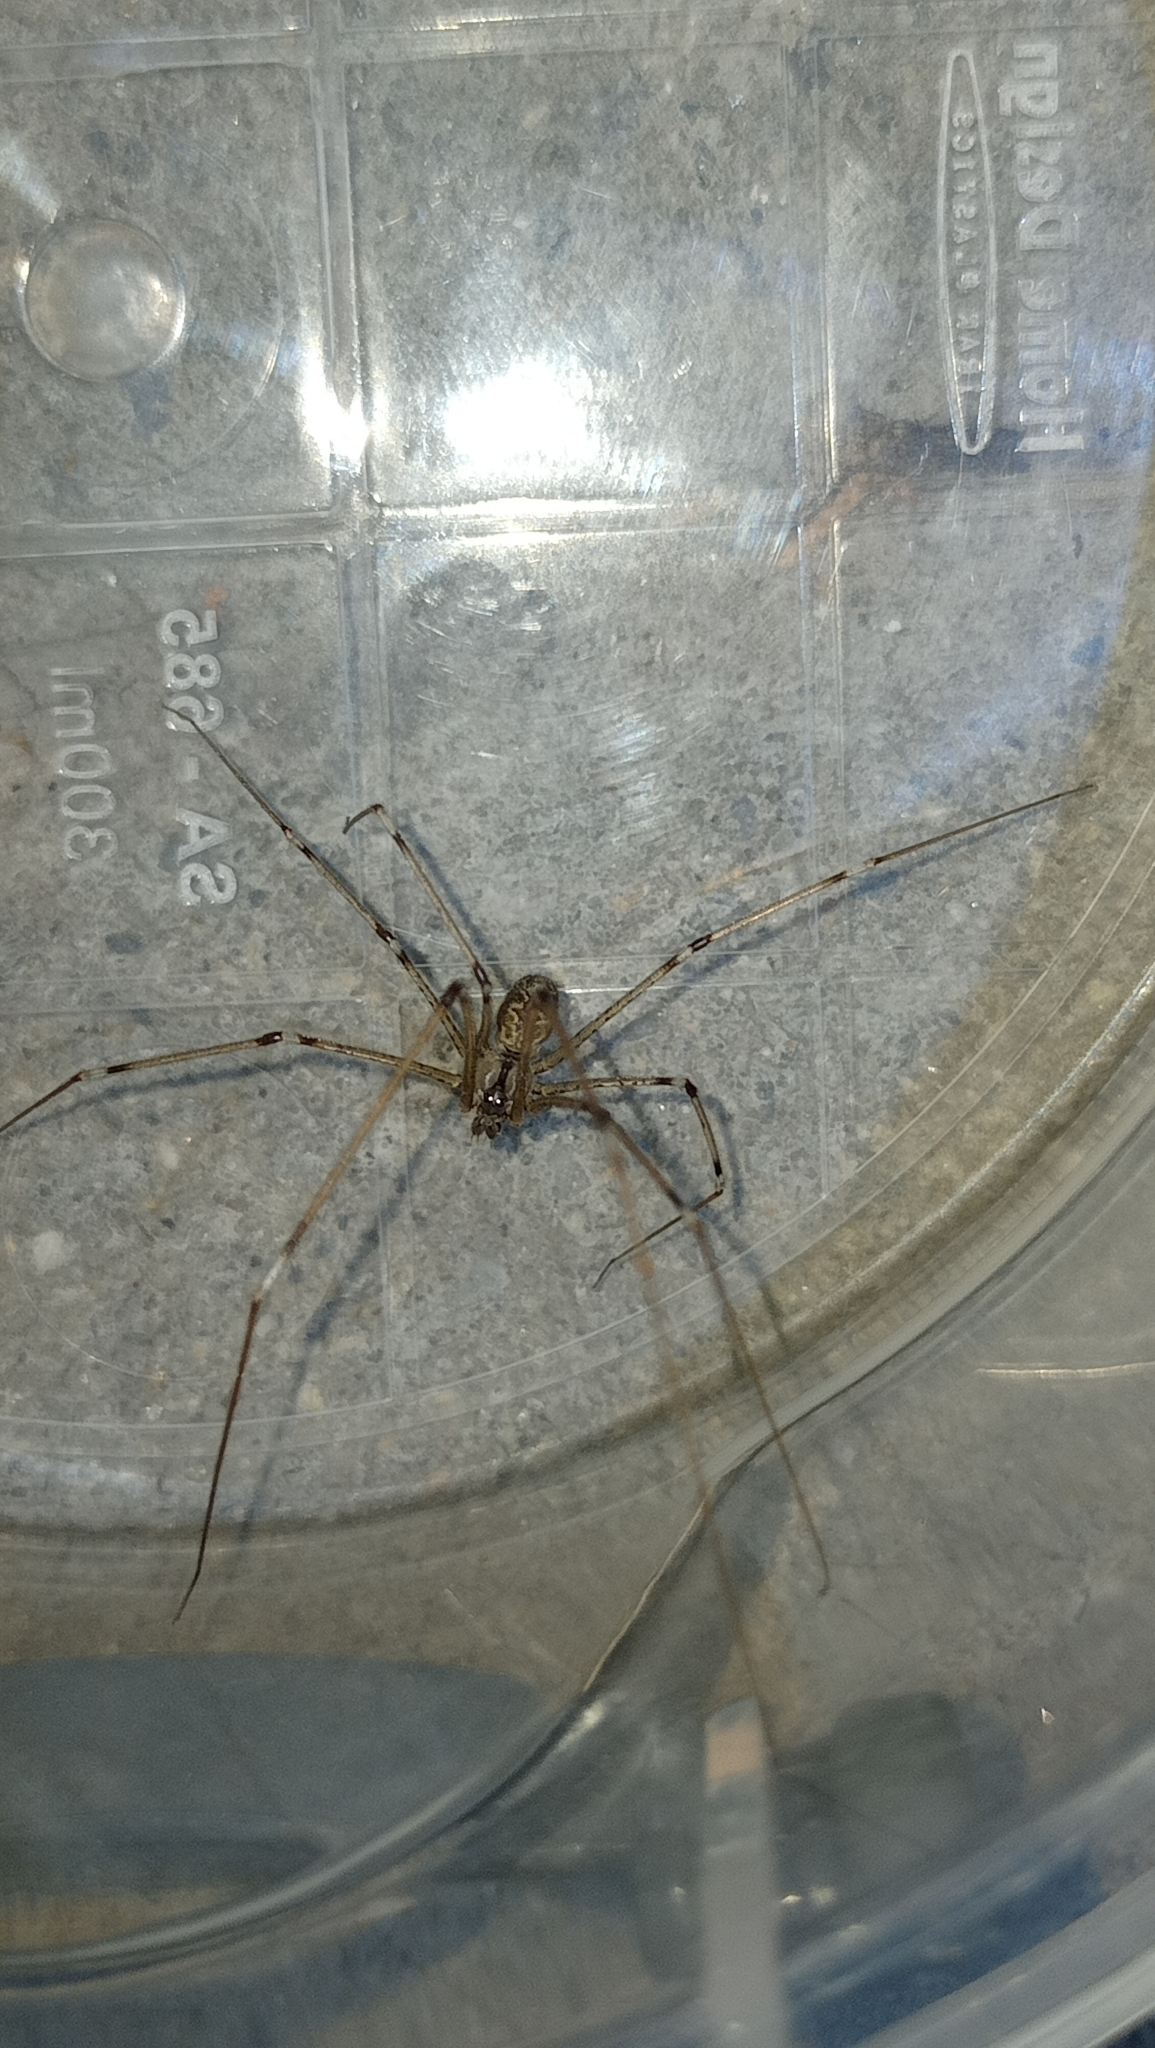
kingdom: Animalia
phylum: Arthropoda
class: Arachnida
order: Araneae
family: Pholcidae
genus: Holocnemus
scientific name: Holocnemus pluchei
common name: Marbled cellar spider
